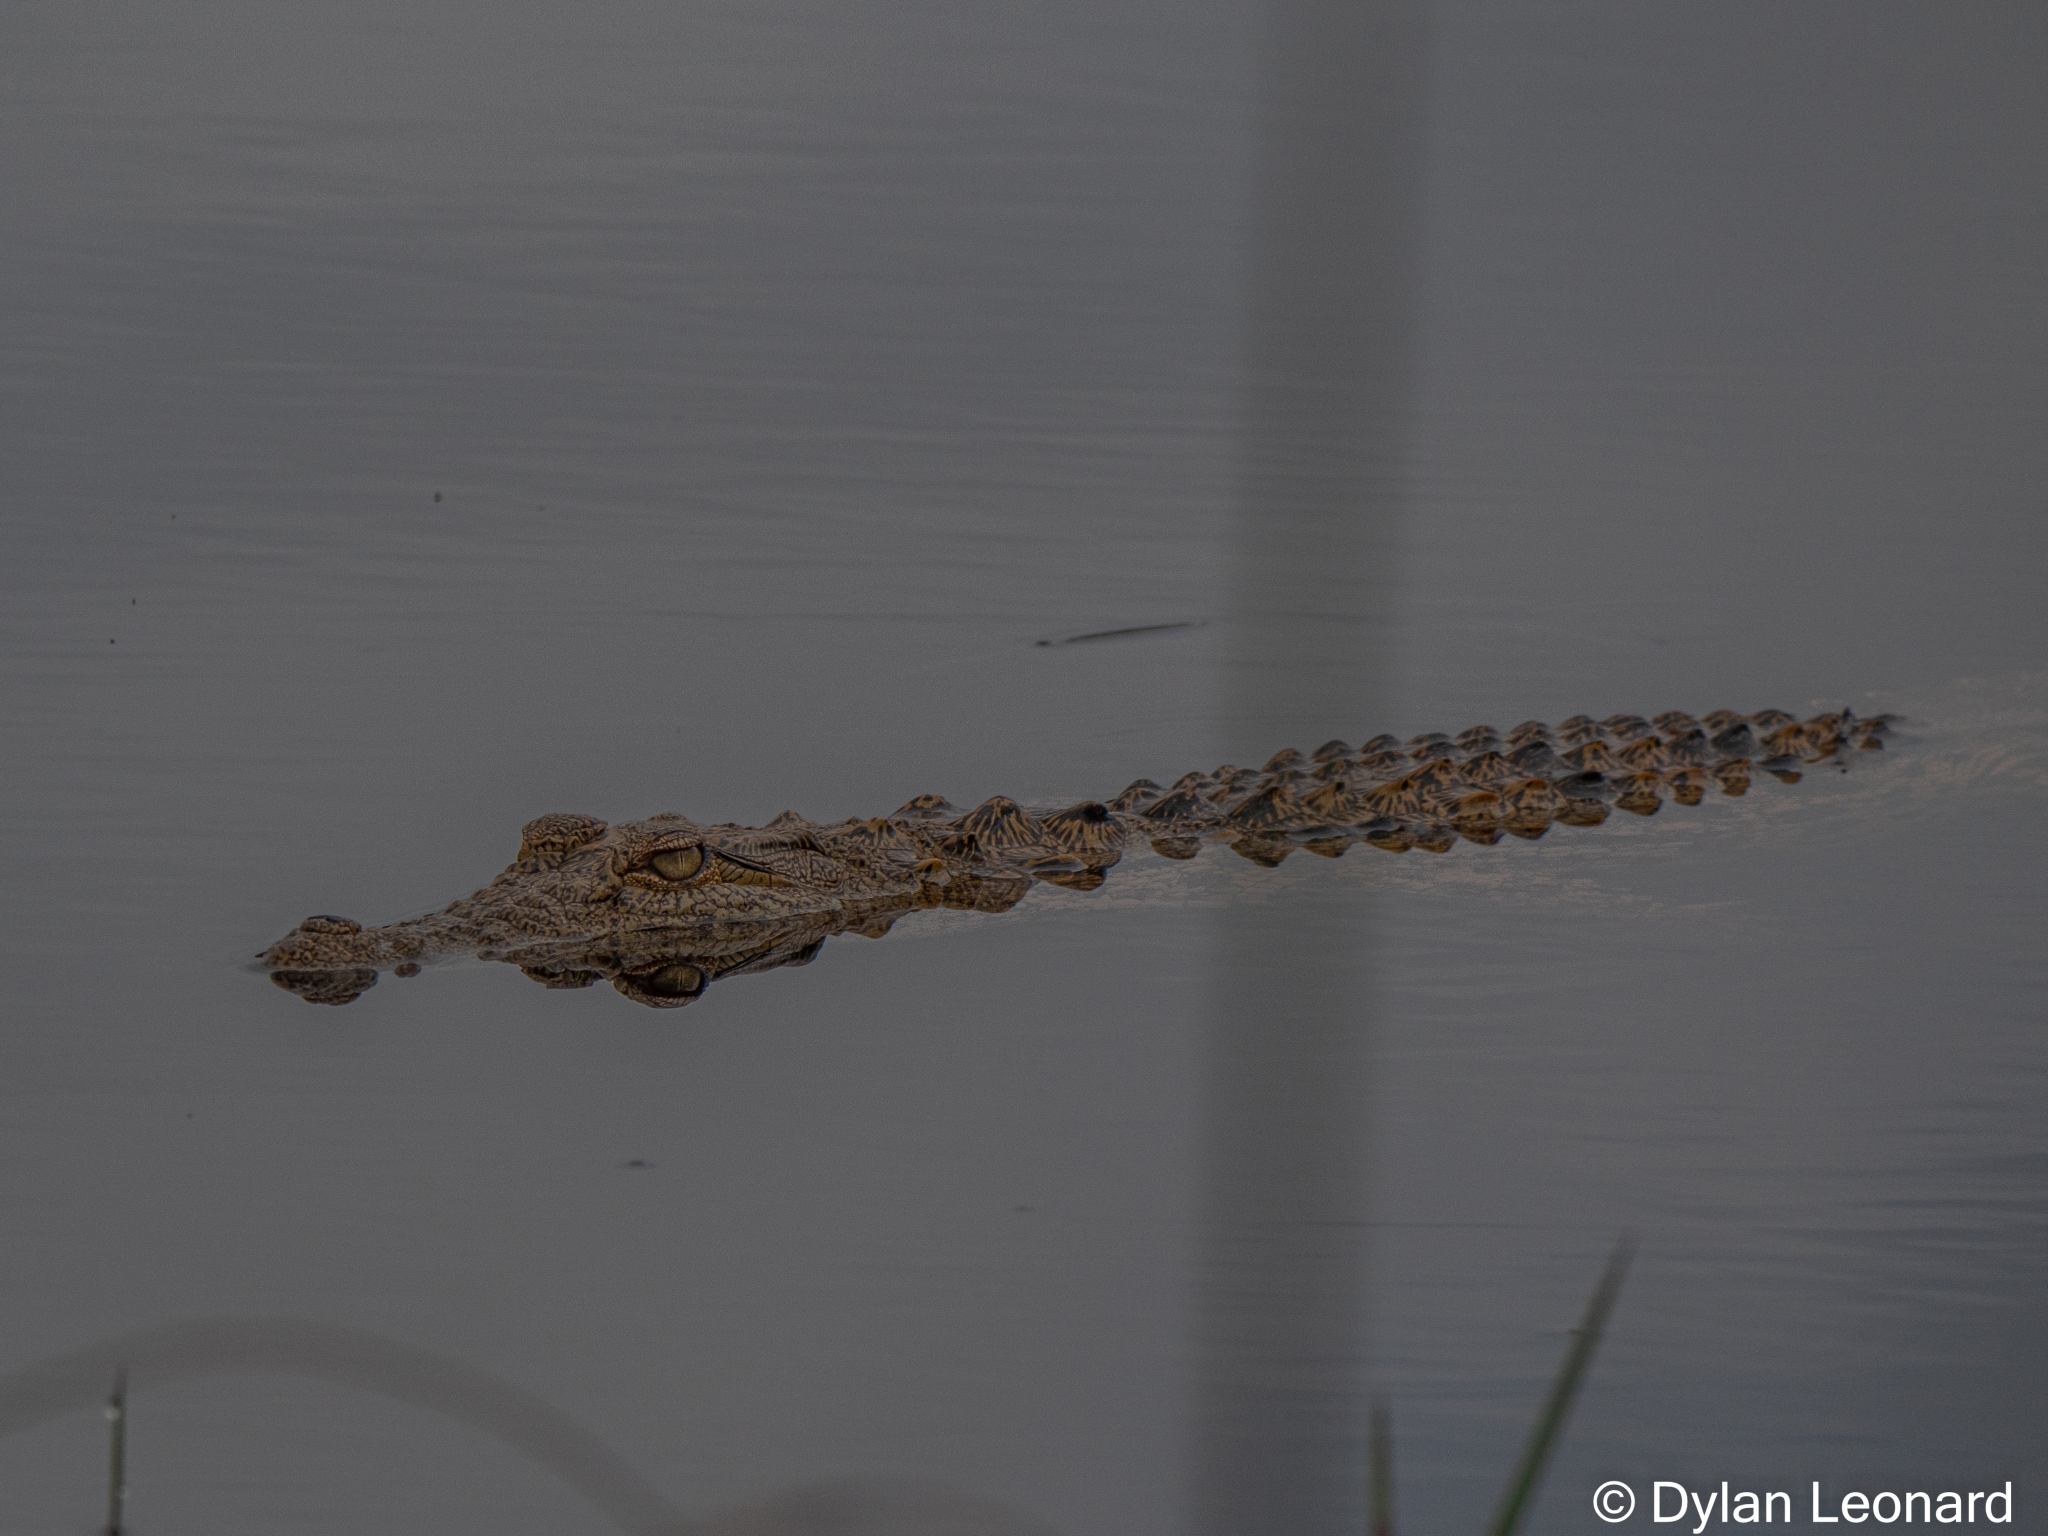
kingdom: Animalia
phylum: Chordata
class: Crocodylia
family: Crocodylidae
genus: Crocodylus
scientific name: Crocodylus niloticus
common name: Nile crocodile
